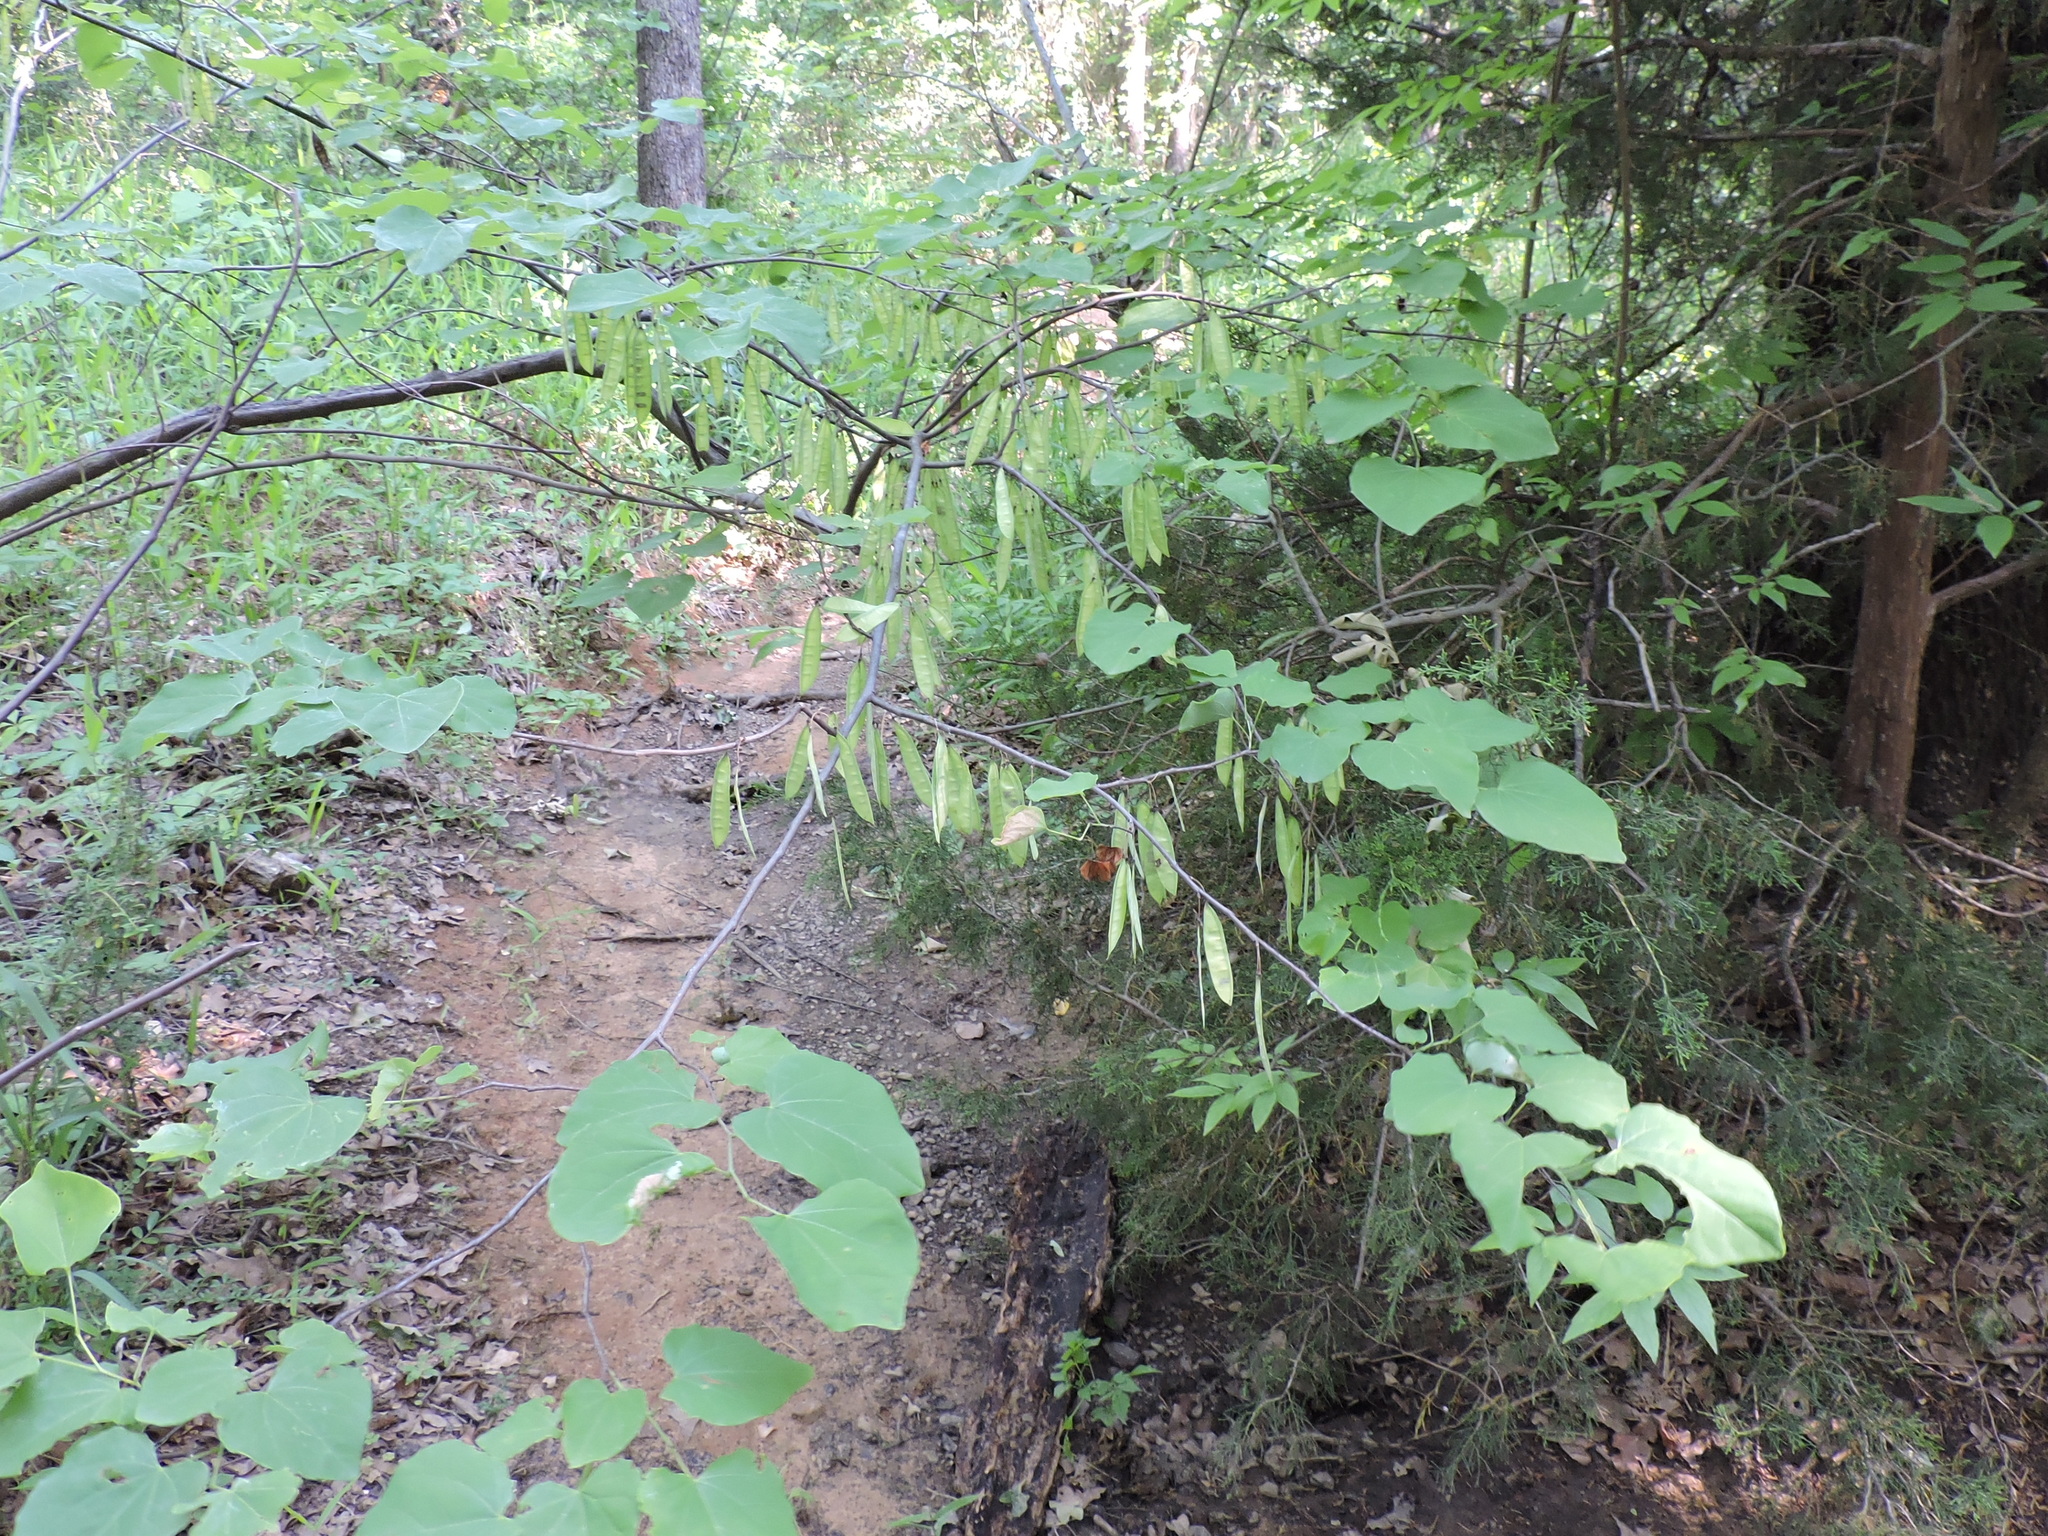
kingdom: Plantae
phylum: Tracheophyta
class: Magnoliopsida
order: Fabales
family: Fabaceae
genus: Cercis
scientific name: Cercis canadensis
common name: Eastern redbud
